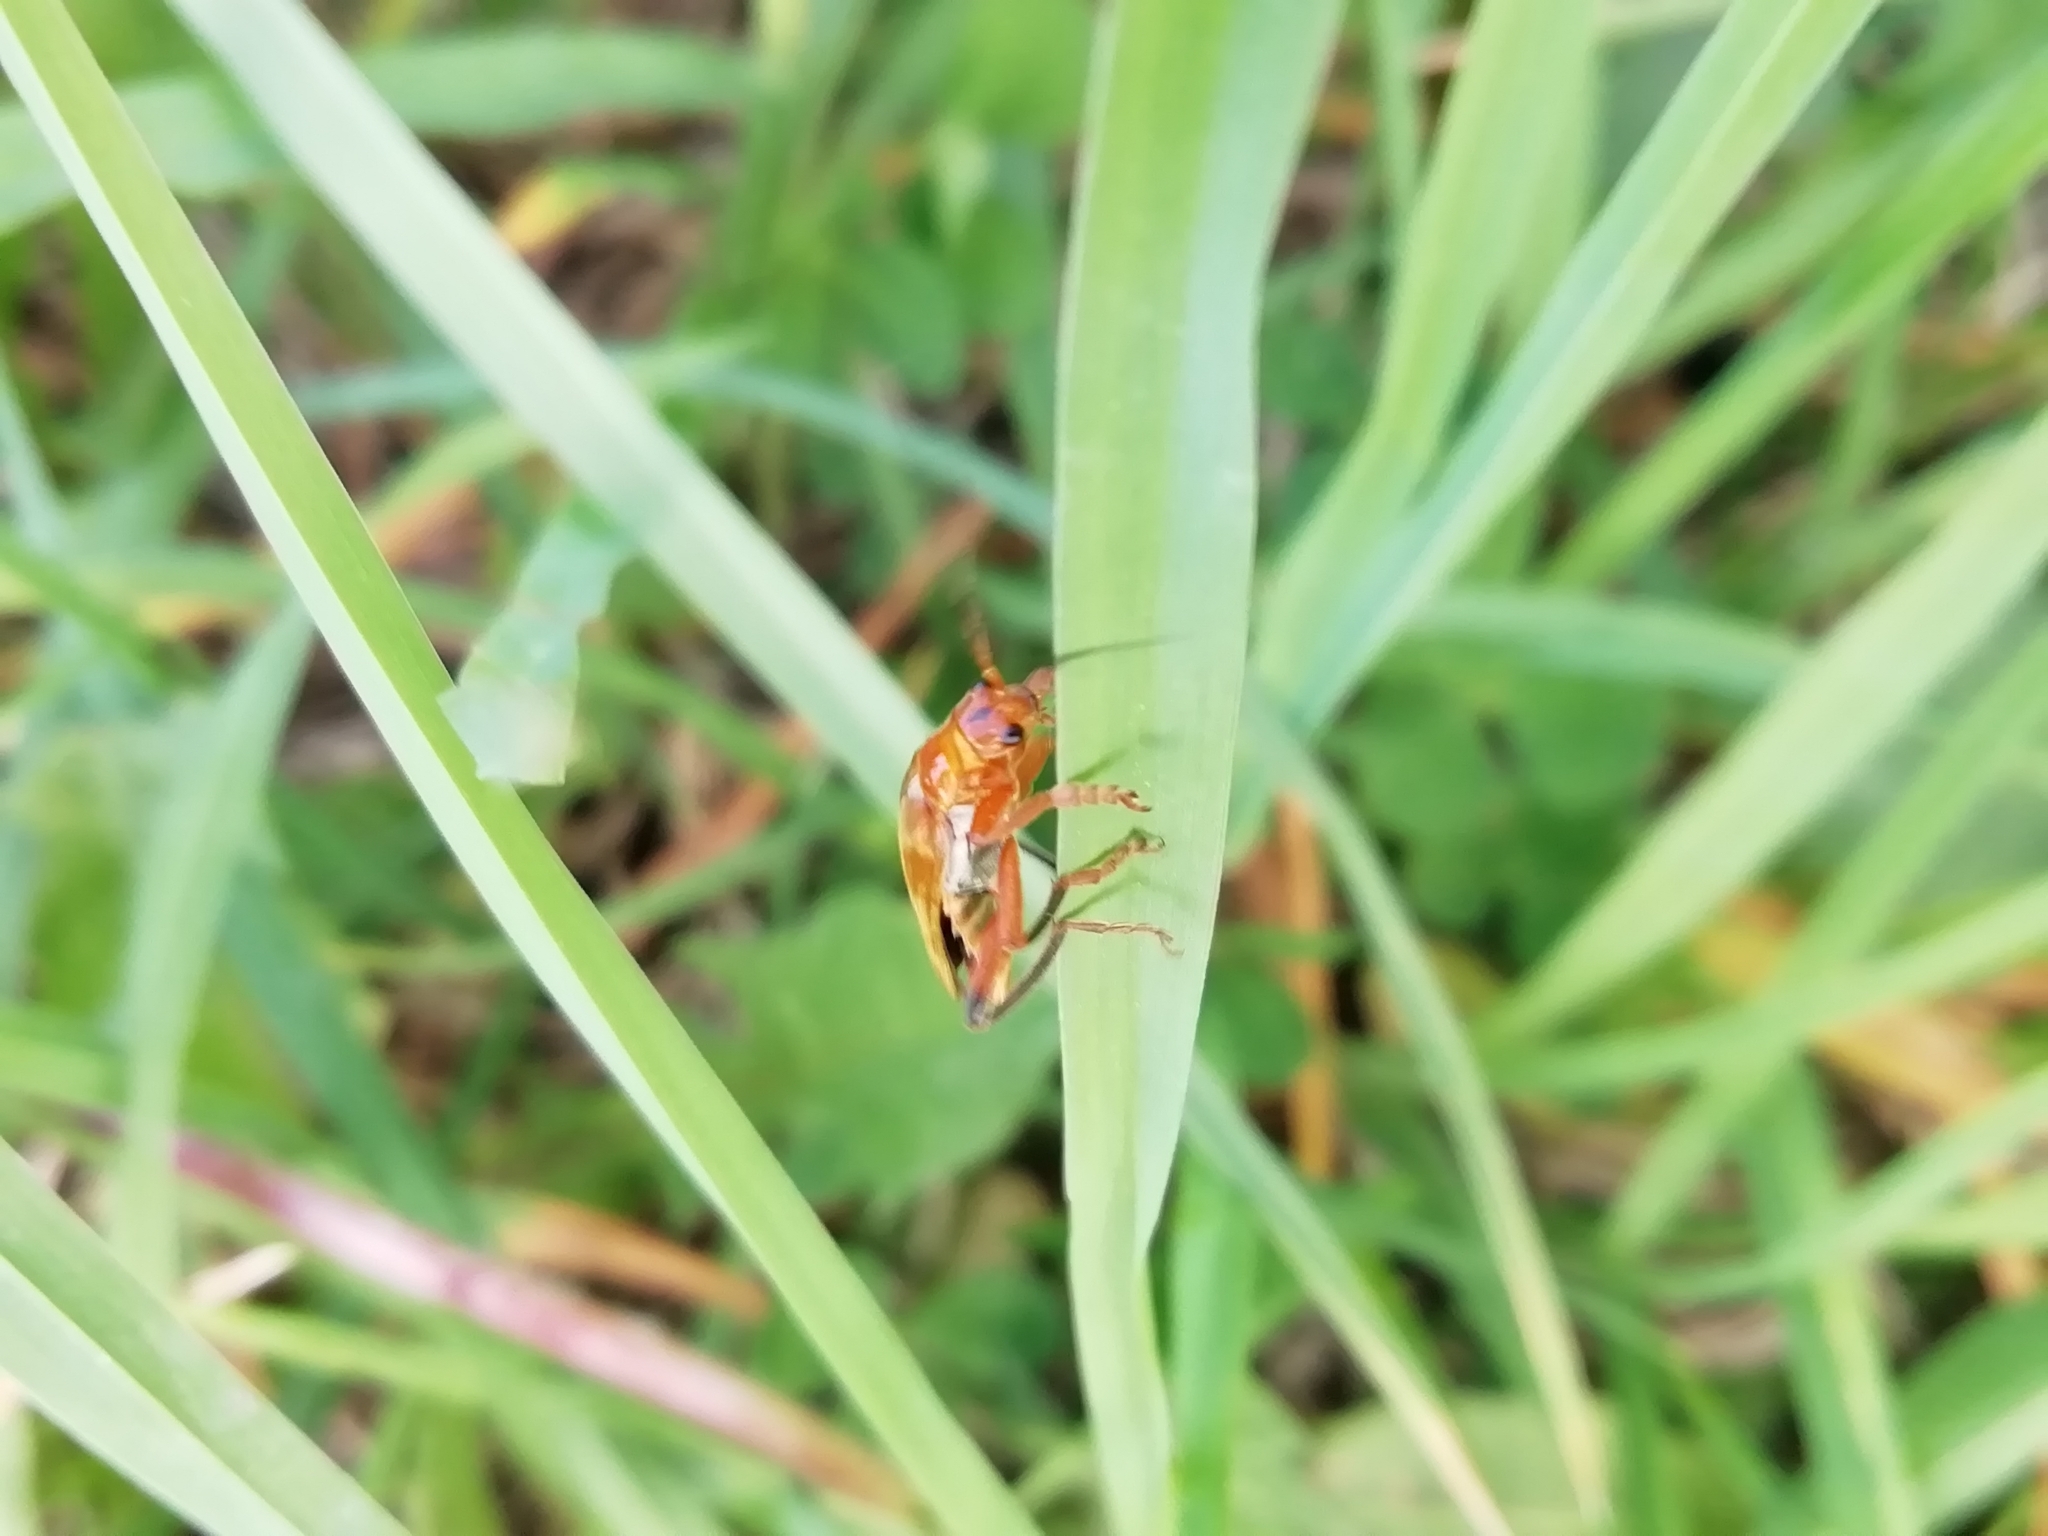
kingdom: Animalia
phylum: Arthropoda
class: Insecta
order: Coleoptera
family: Cantharidae
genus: Cantharis
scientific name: Cantharis livida
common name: Livid soldier beetle
